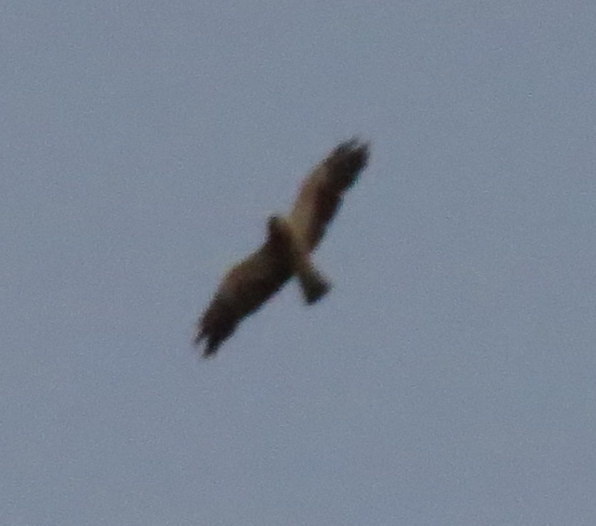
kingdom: Animalia
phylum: Chordata
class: Aves
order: Accipitriformes
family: Accipitridae
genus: Buteo
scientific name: Buteo swainsoni
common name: Swainson's hawk
